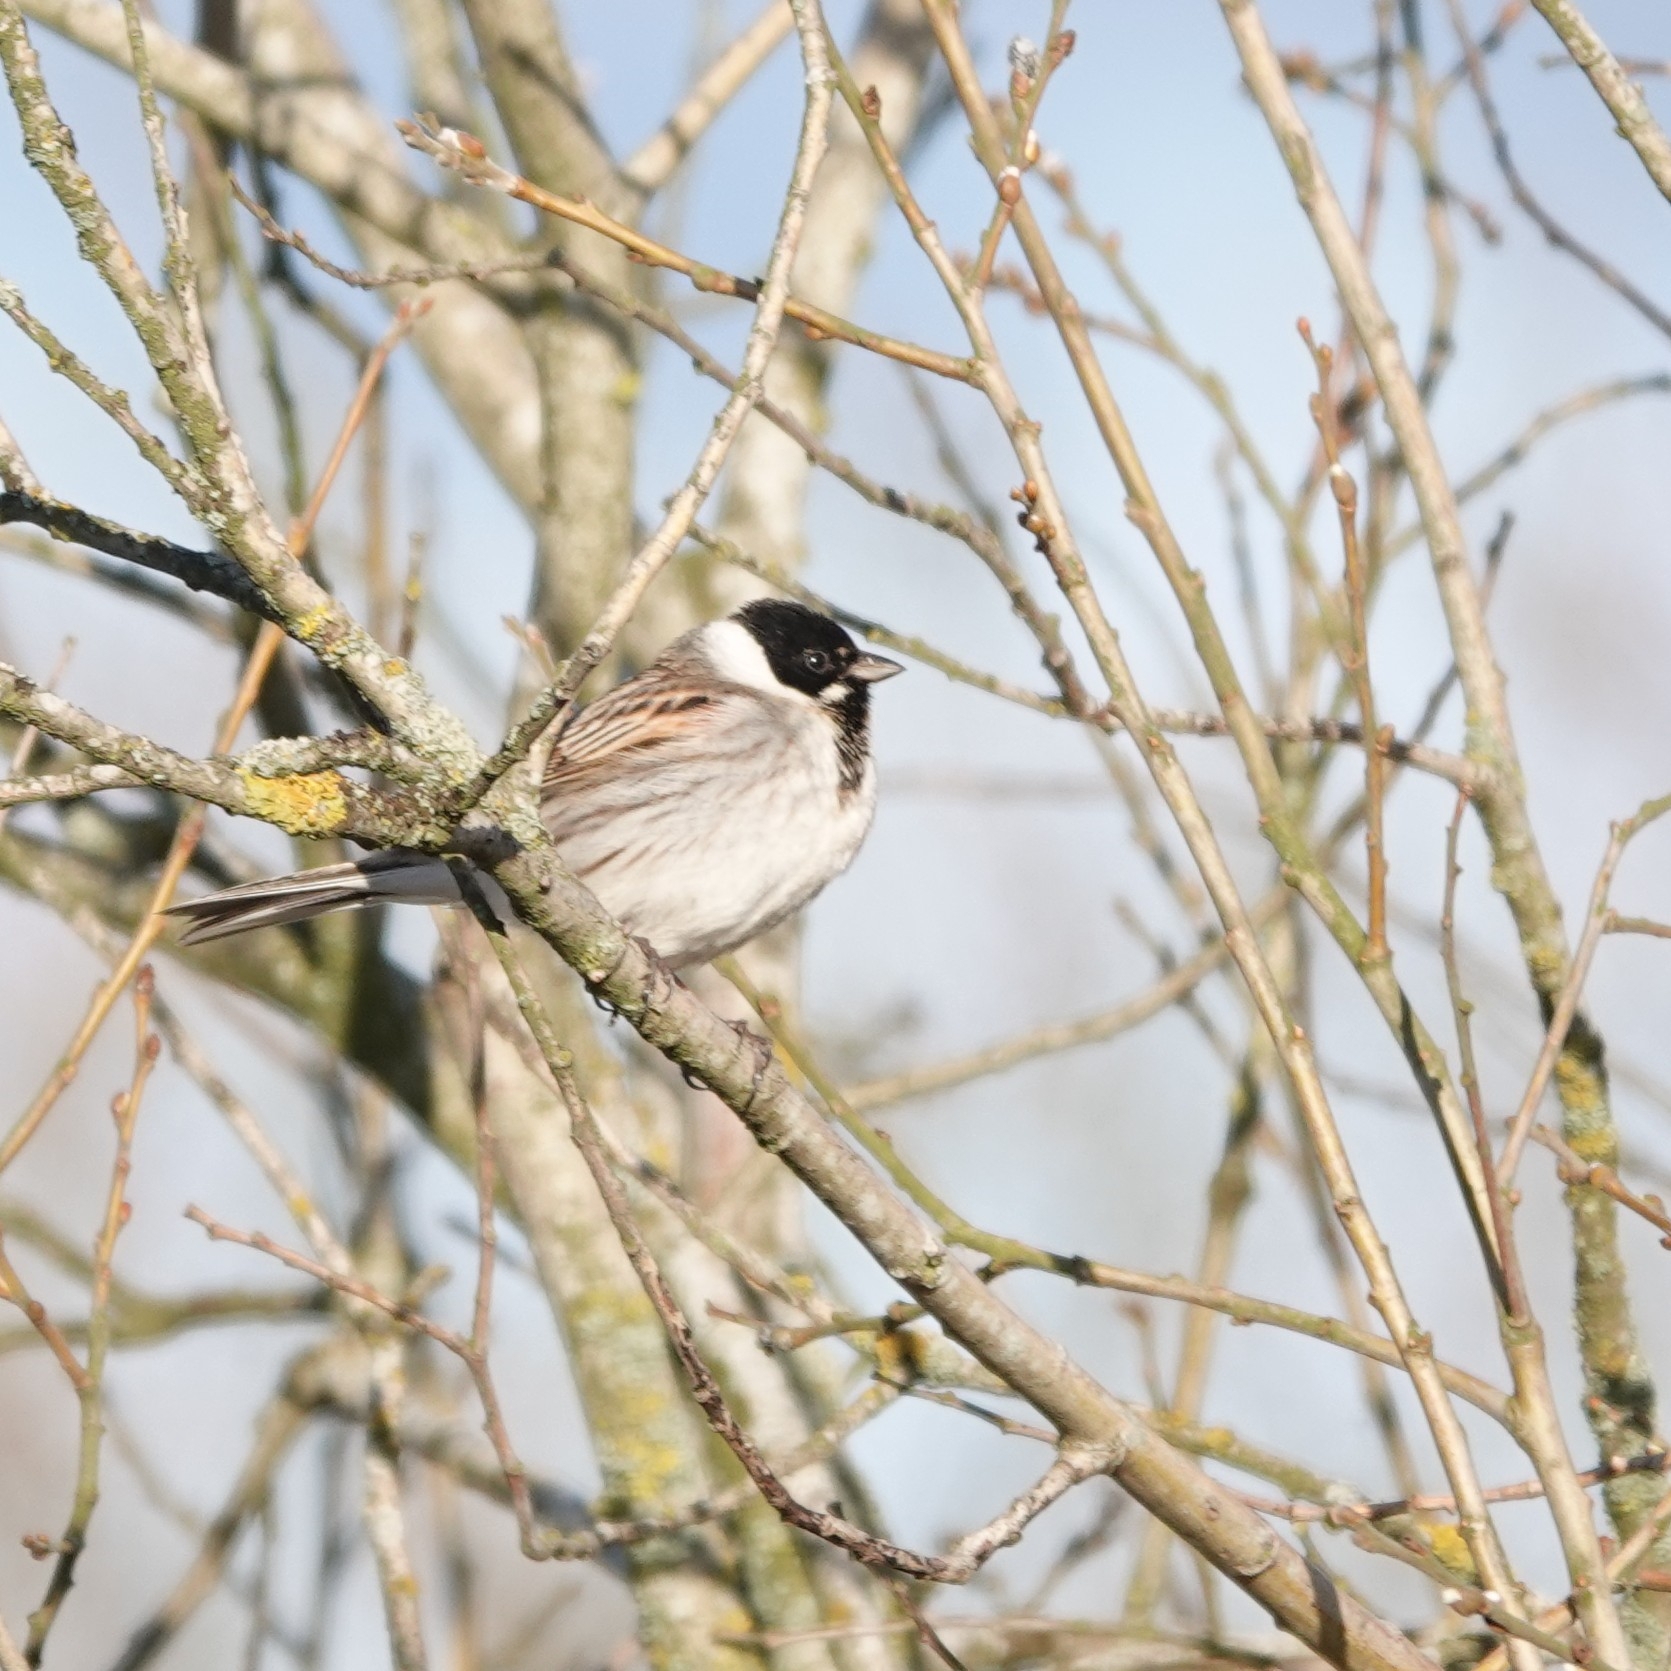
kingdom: Animalia
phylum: Chordata
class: Aves
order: Passeriformes
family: Emberizidae
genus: Emberiza
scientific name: Emberiza schoeniclus
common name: Reed bunting
